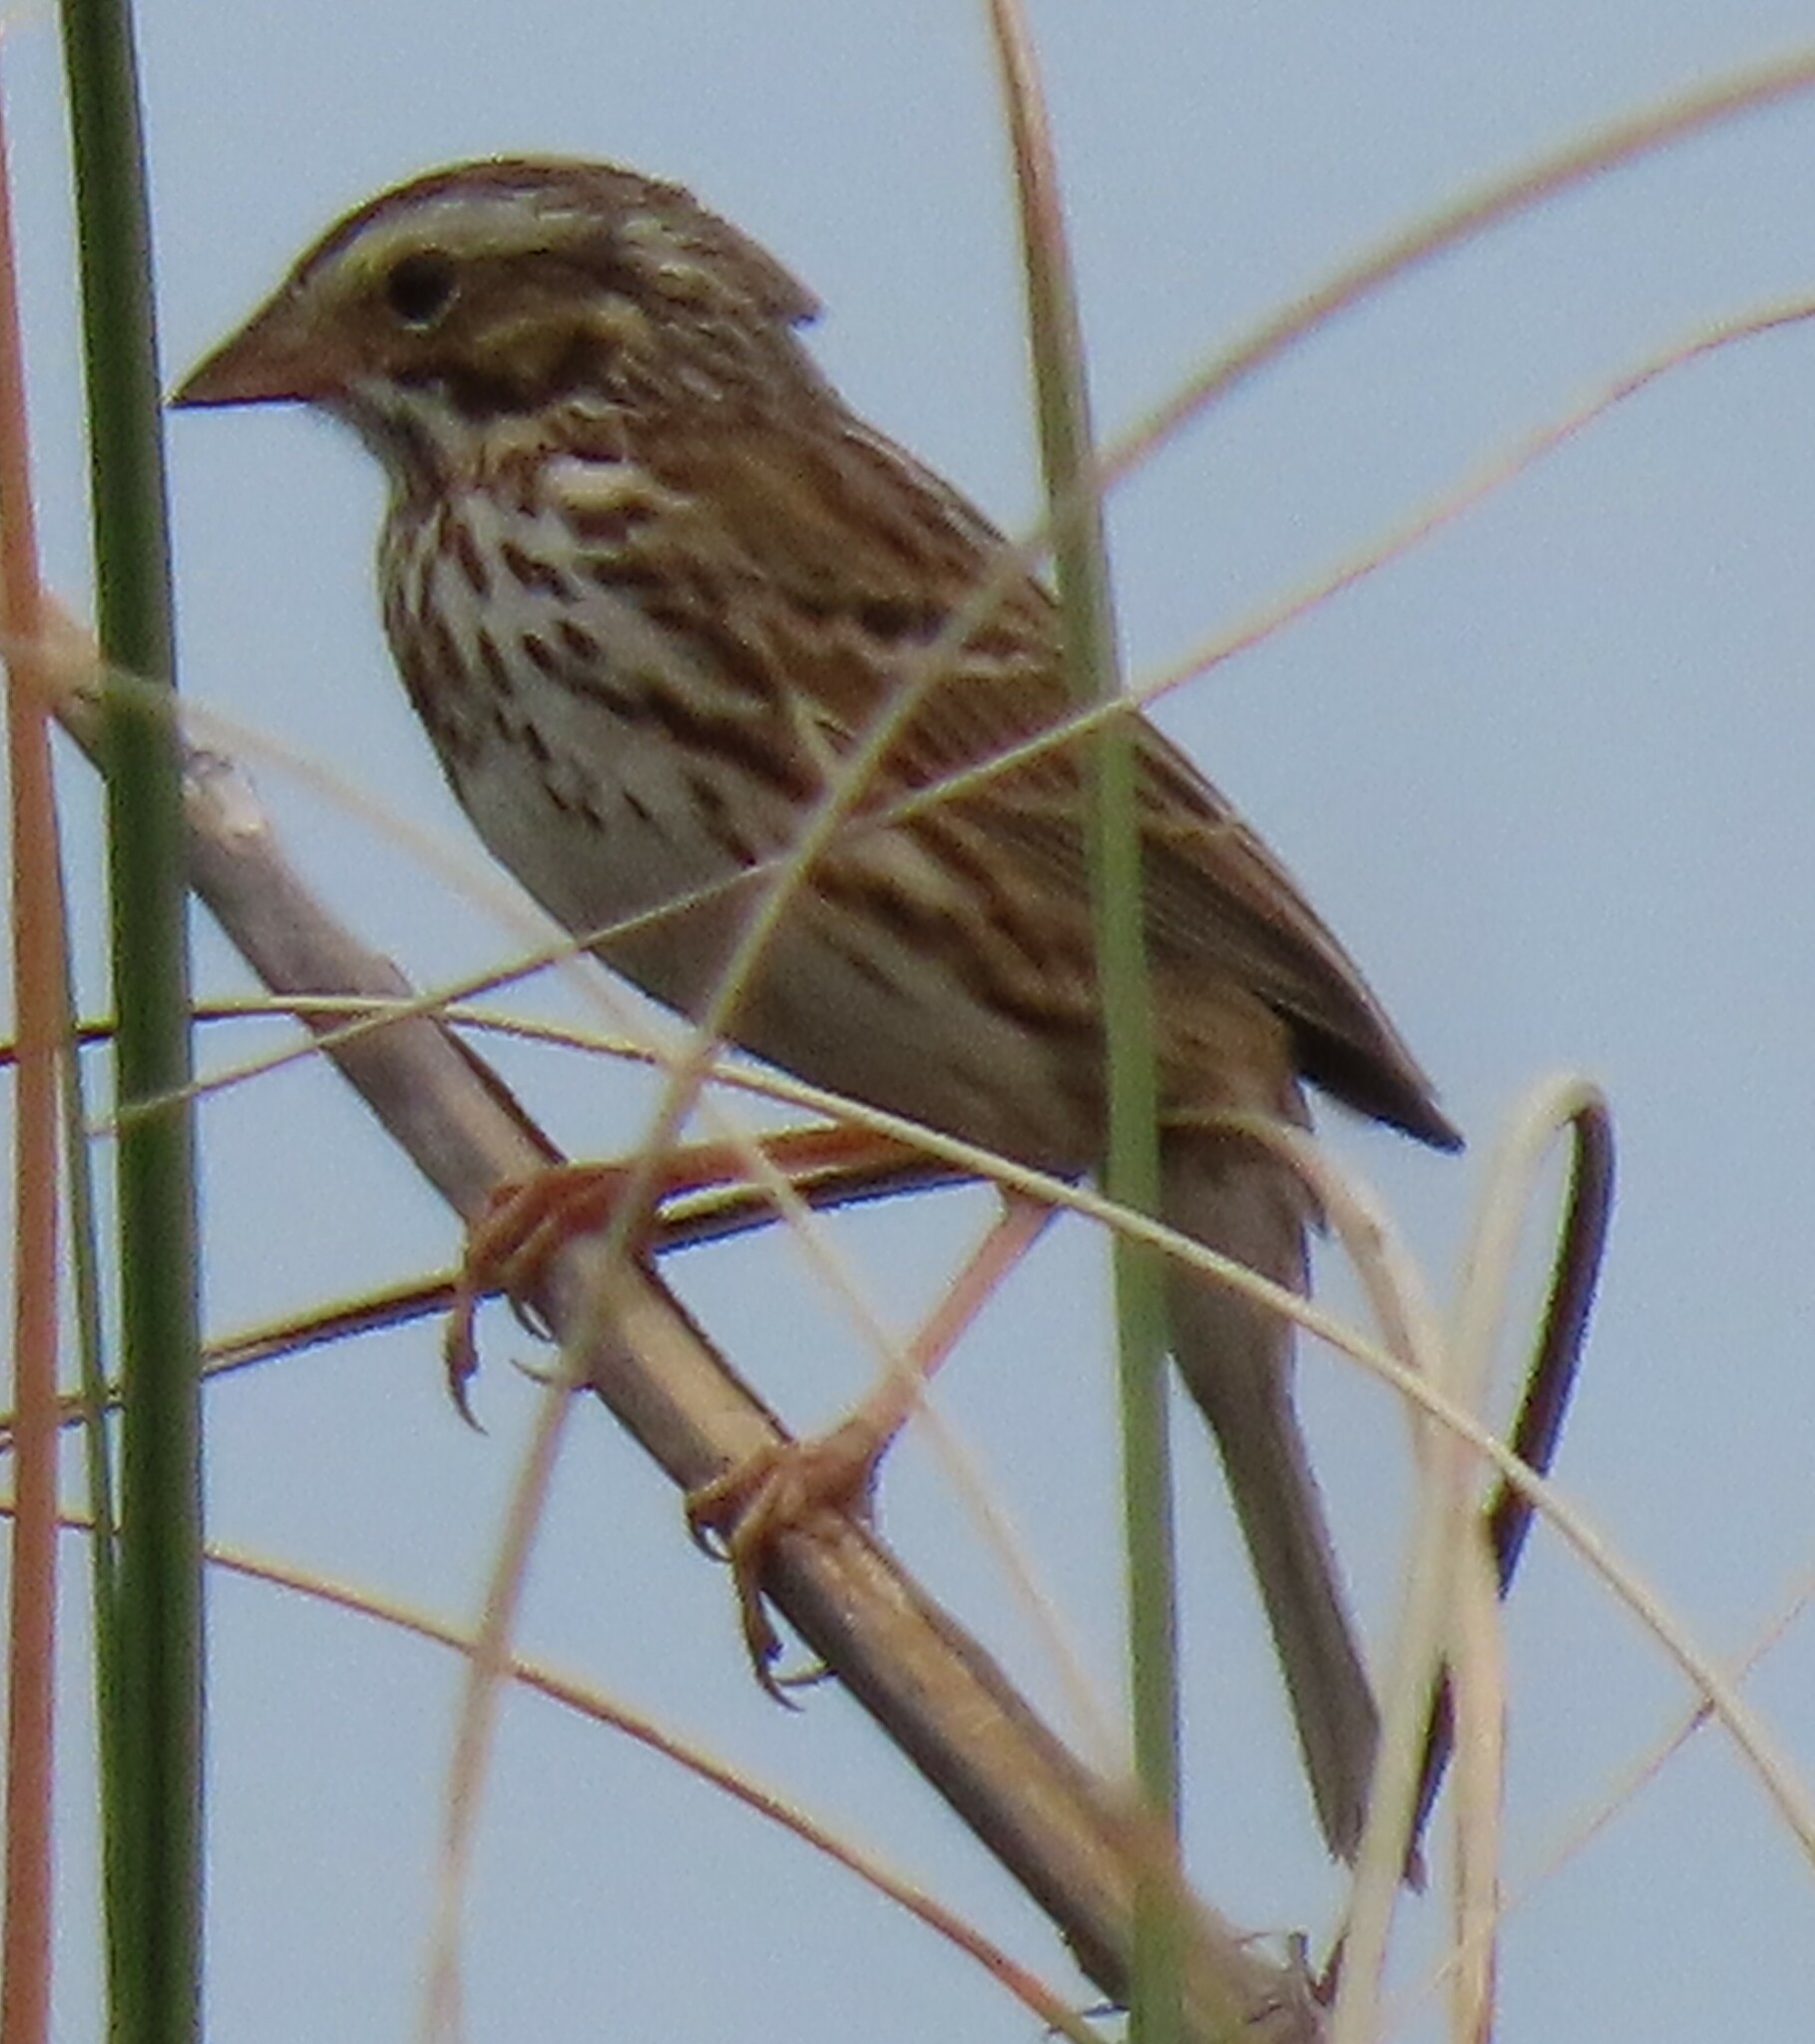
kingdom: Animalia
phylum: Chordata
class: Aves
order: Passeriformes
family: Passerellidae
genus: Passerculus
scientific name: Passerculus sandwichensis
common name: Savannah sparrow
